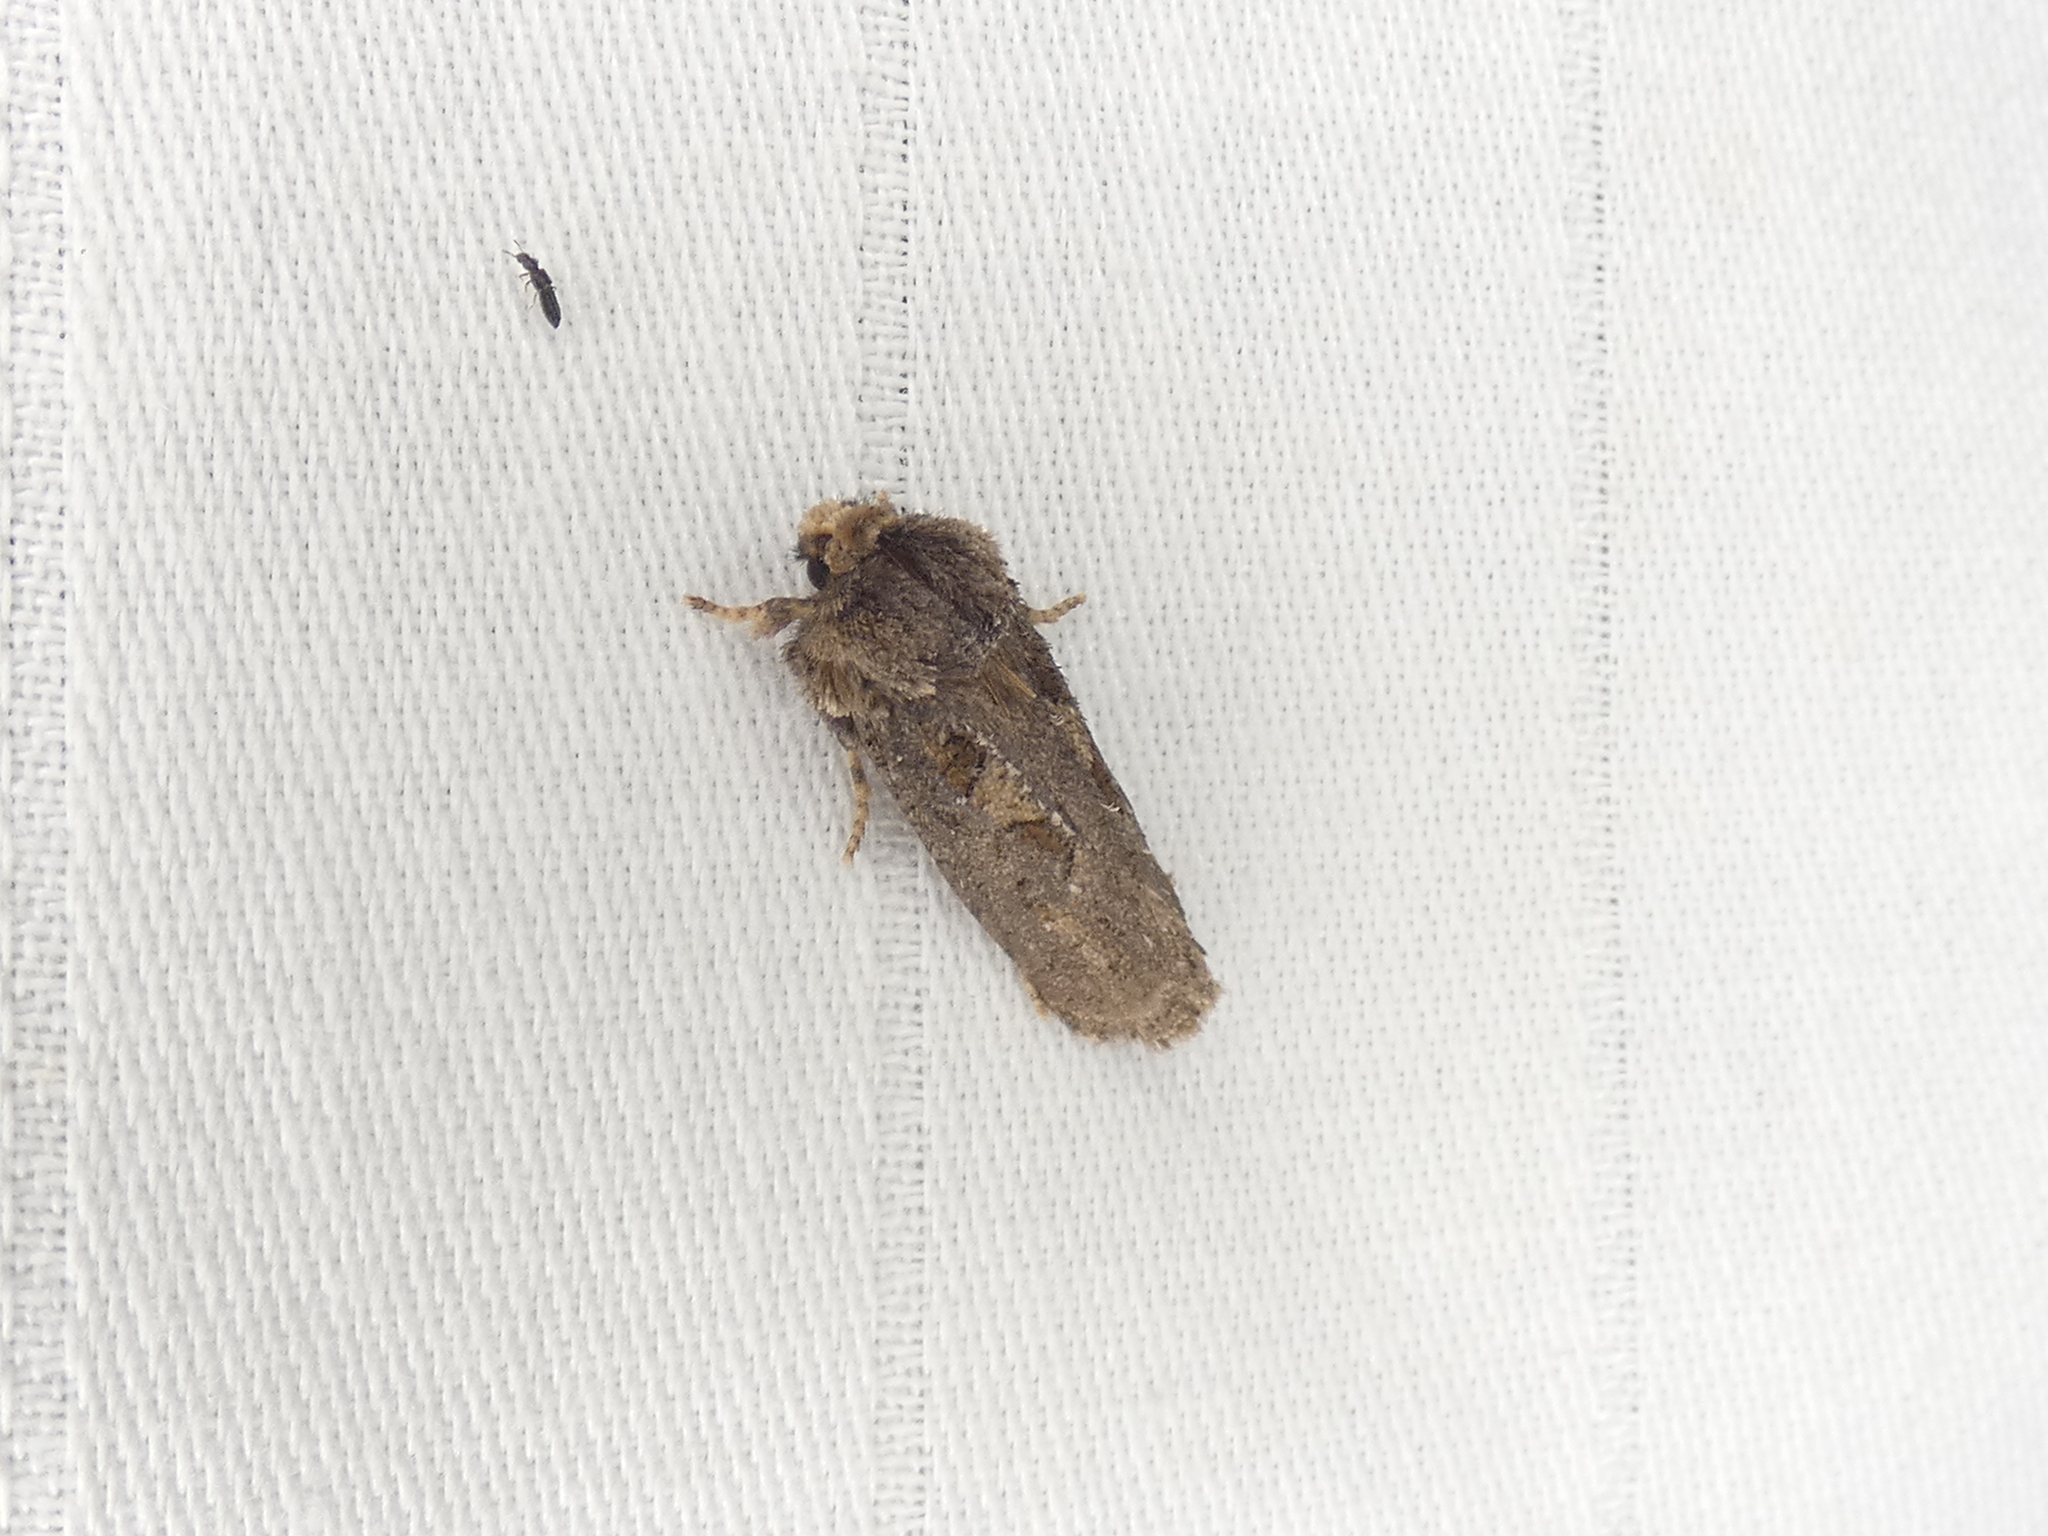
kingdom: Animalia
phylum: Arthropoda
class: Insecta
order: Lepidoptera
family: Tineidae
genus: Acrolophus
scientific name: Acrolophus arcanella
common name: Arcane grass tubeworm moth
